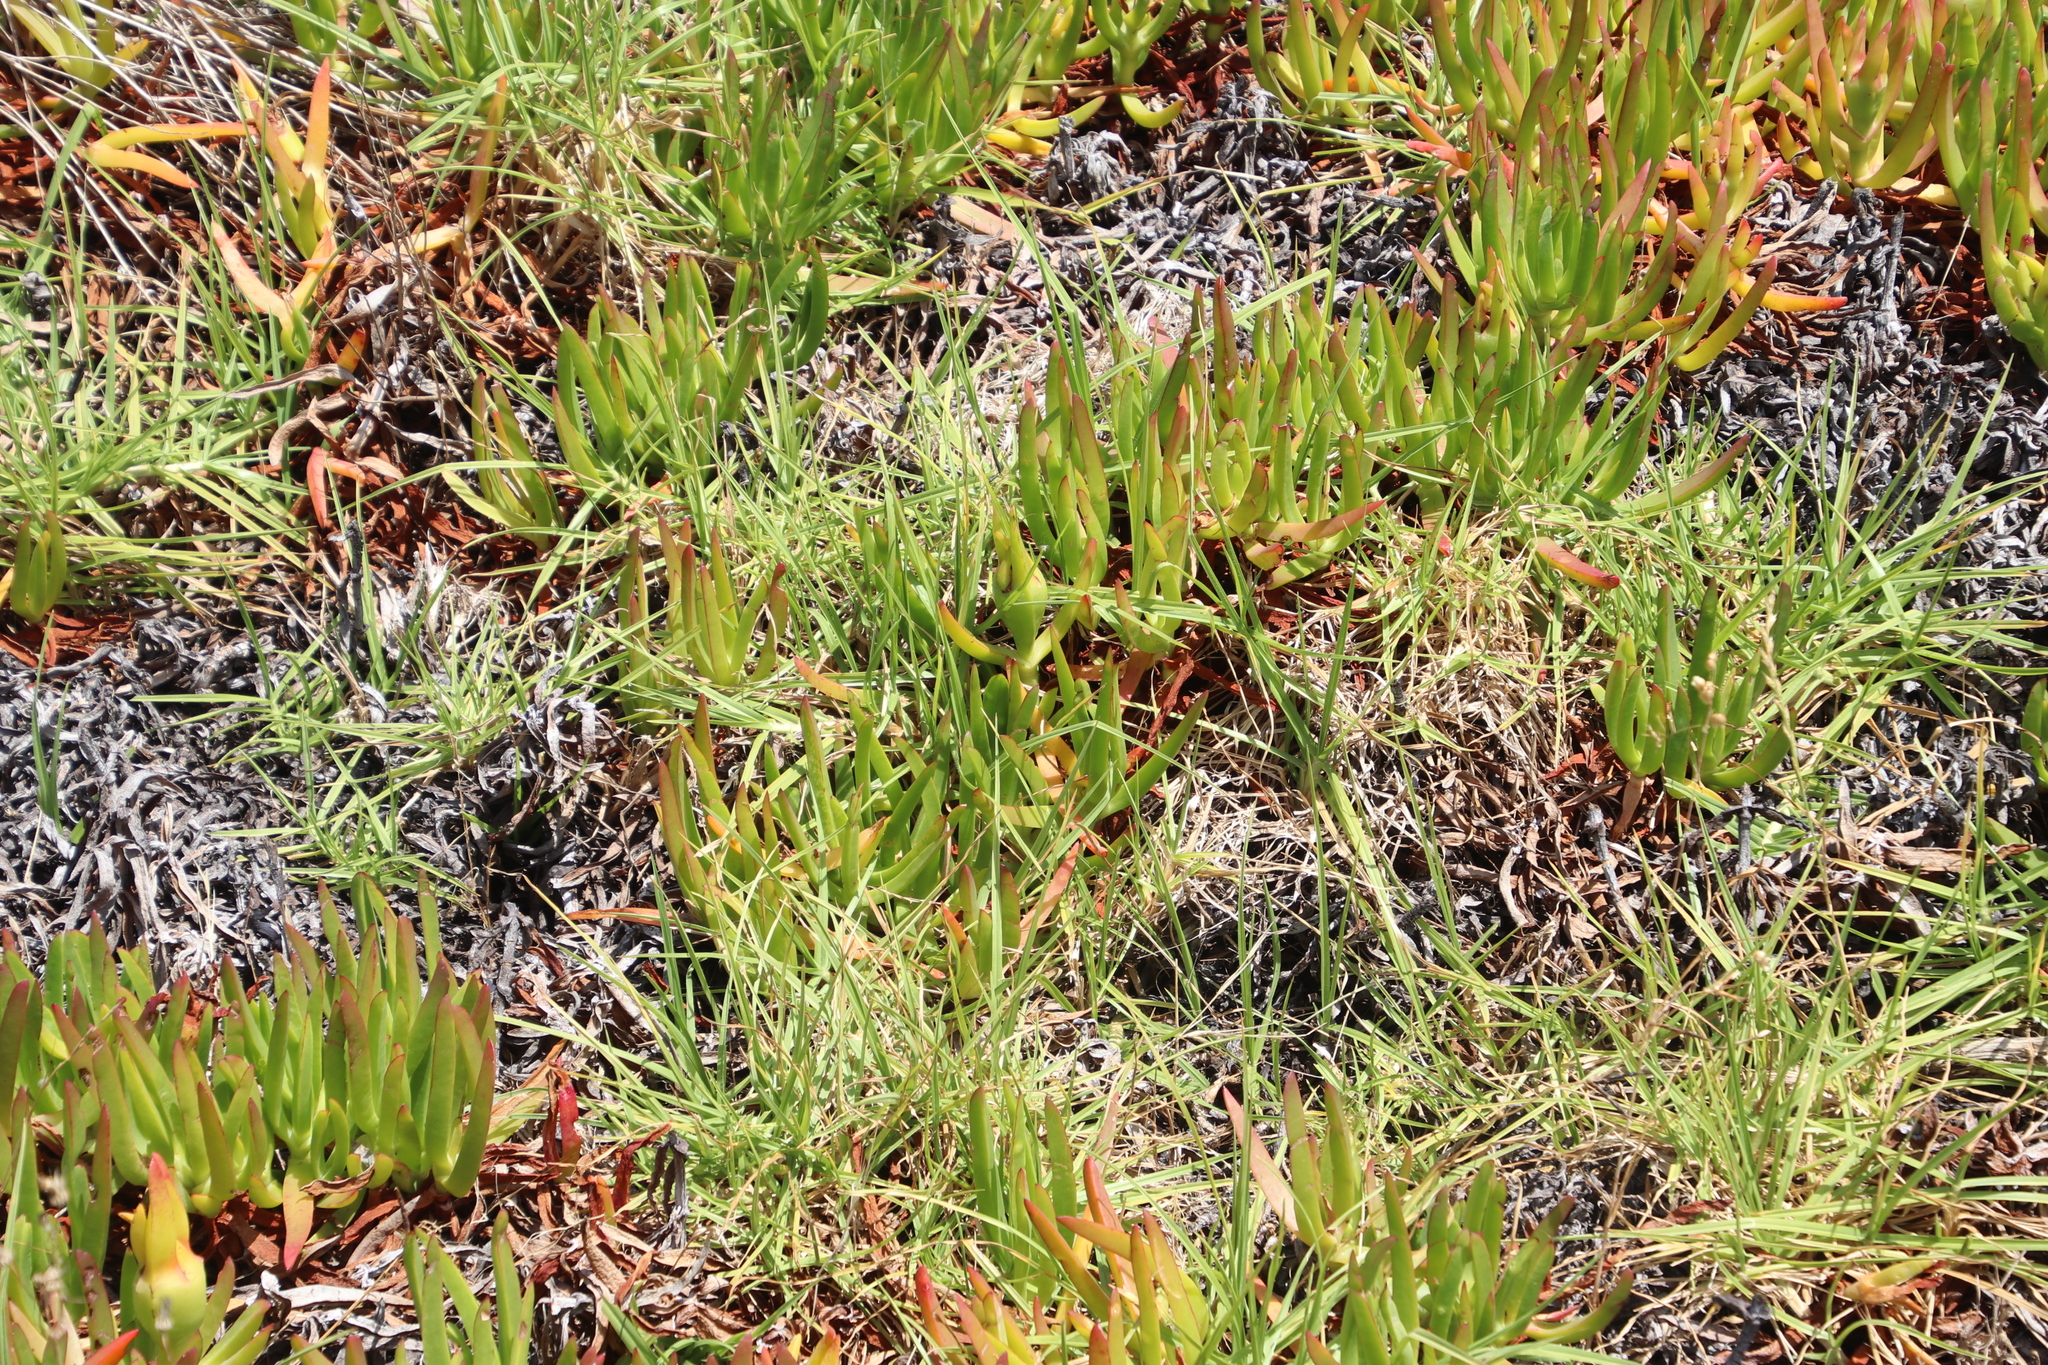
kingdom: Plantae
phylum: Tracheophyta
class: Magnoliopsida
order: Caryophyllales
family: Aizoaceae
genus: Carpobrotus
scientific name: Carpobrotus edulis
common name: Hottentot-fig
